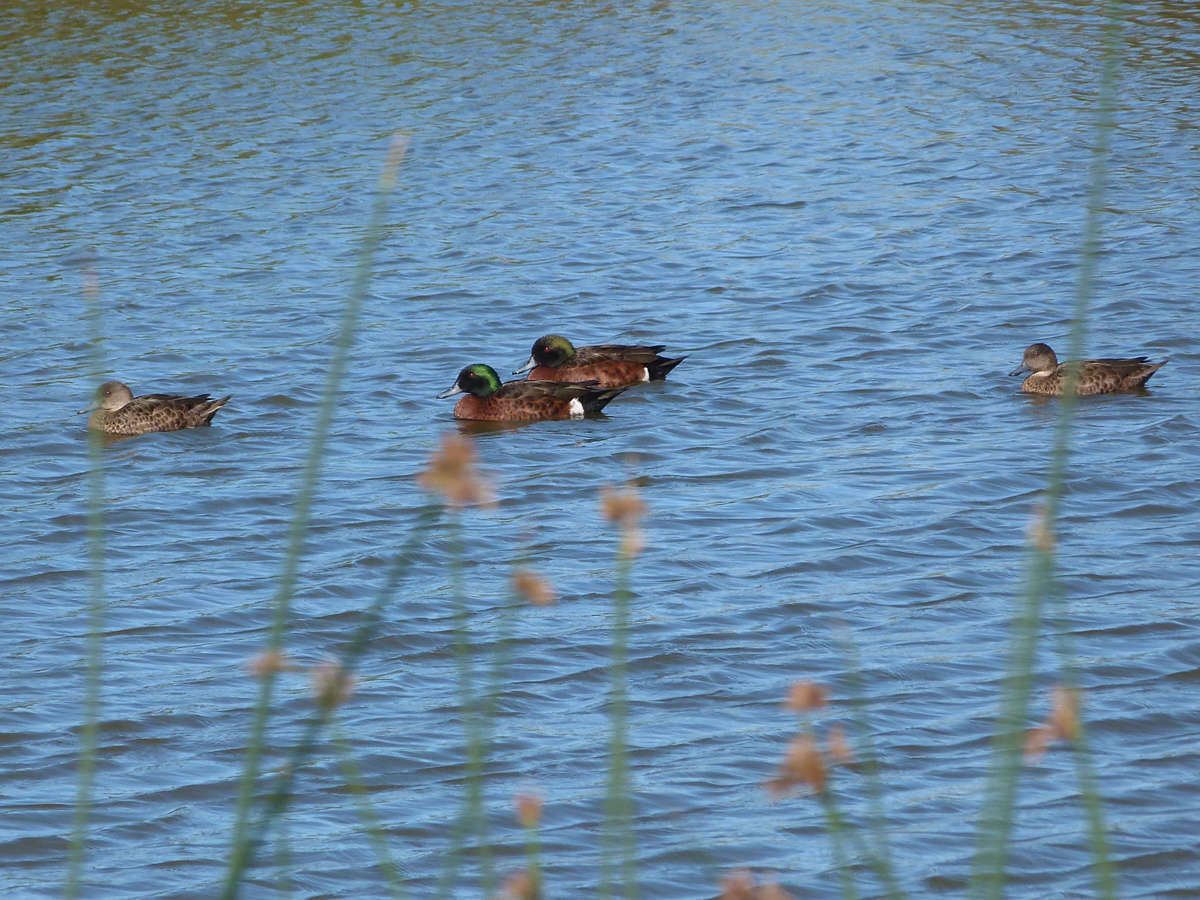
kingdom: Animalia
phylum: Chordata
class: Aves
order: Anseriformes
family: Anatidae
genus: Anas
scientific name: Anas castanea
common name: Chestnut teal
